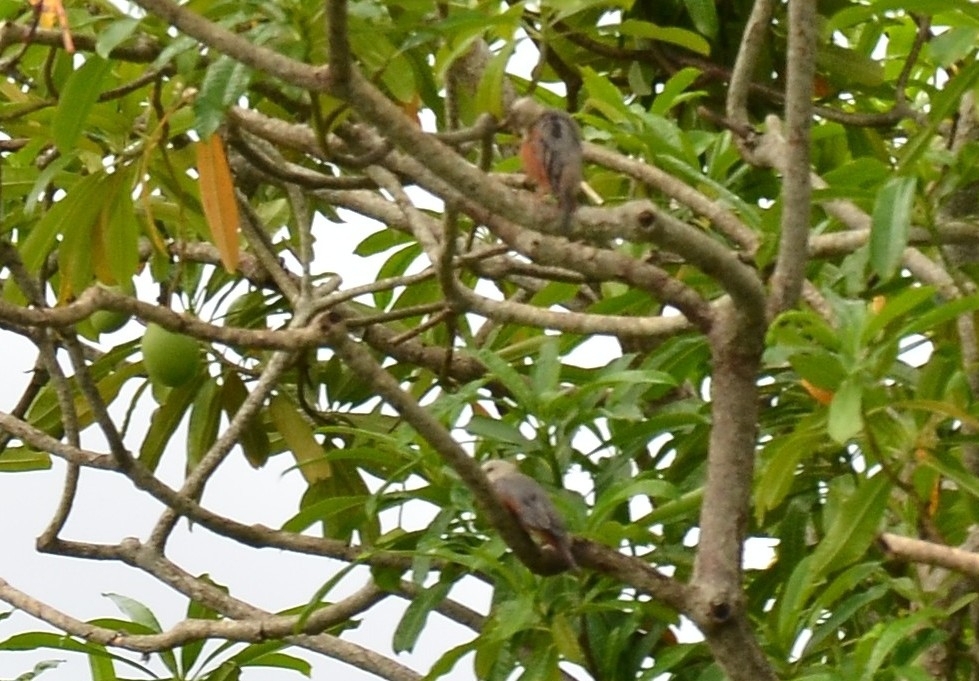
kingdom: Animalia
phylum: Chordata
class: Aves
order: Passeriformes
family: Sturnidae
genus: Sturnia
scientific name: Sturnia blythii
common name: Malabar starling
